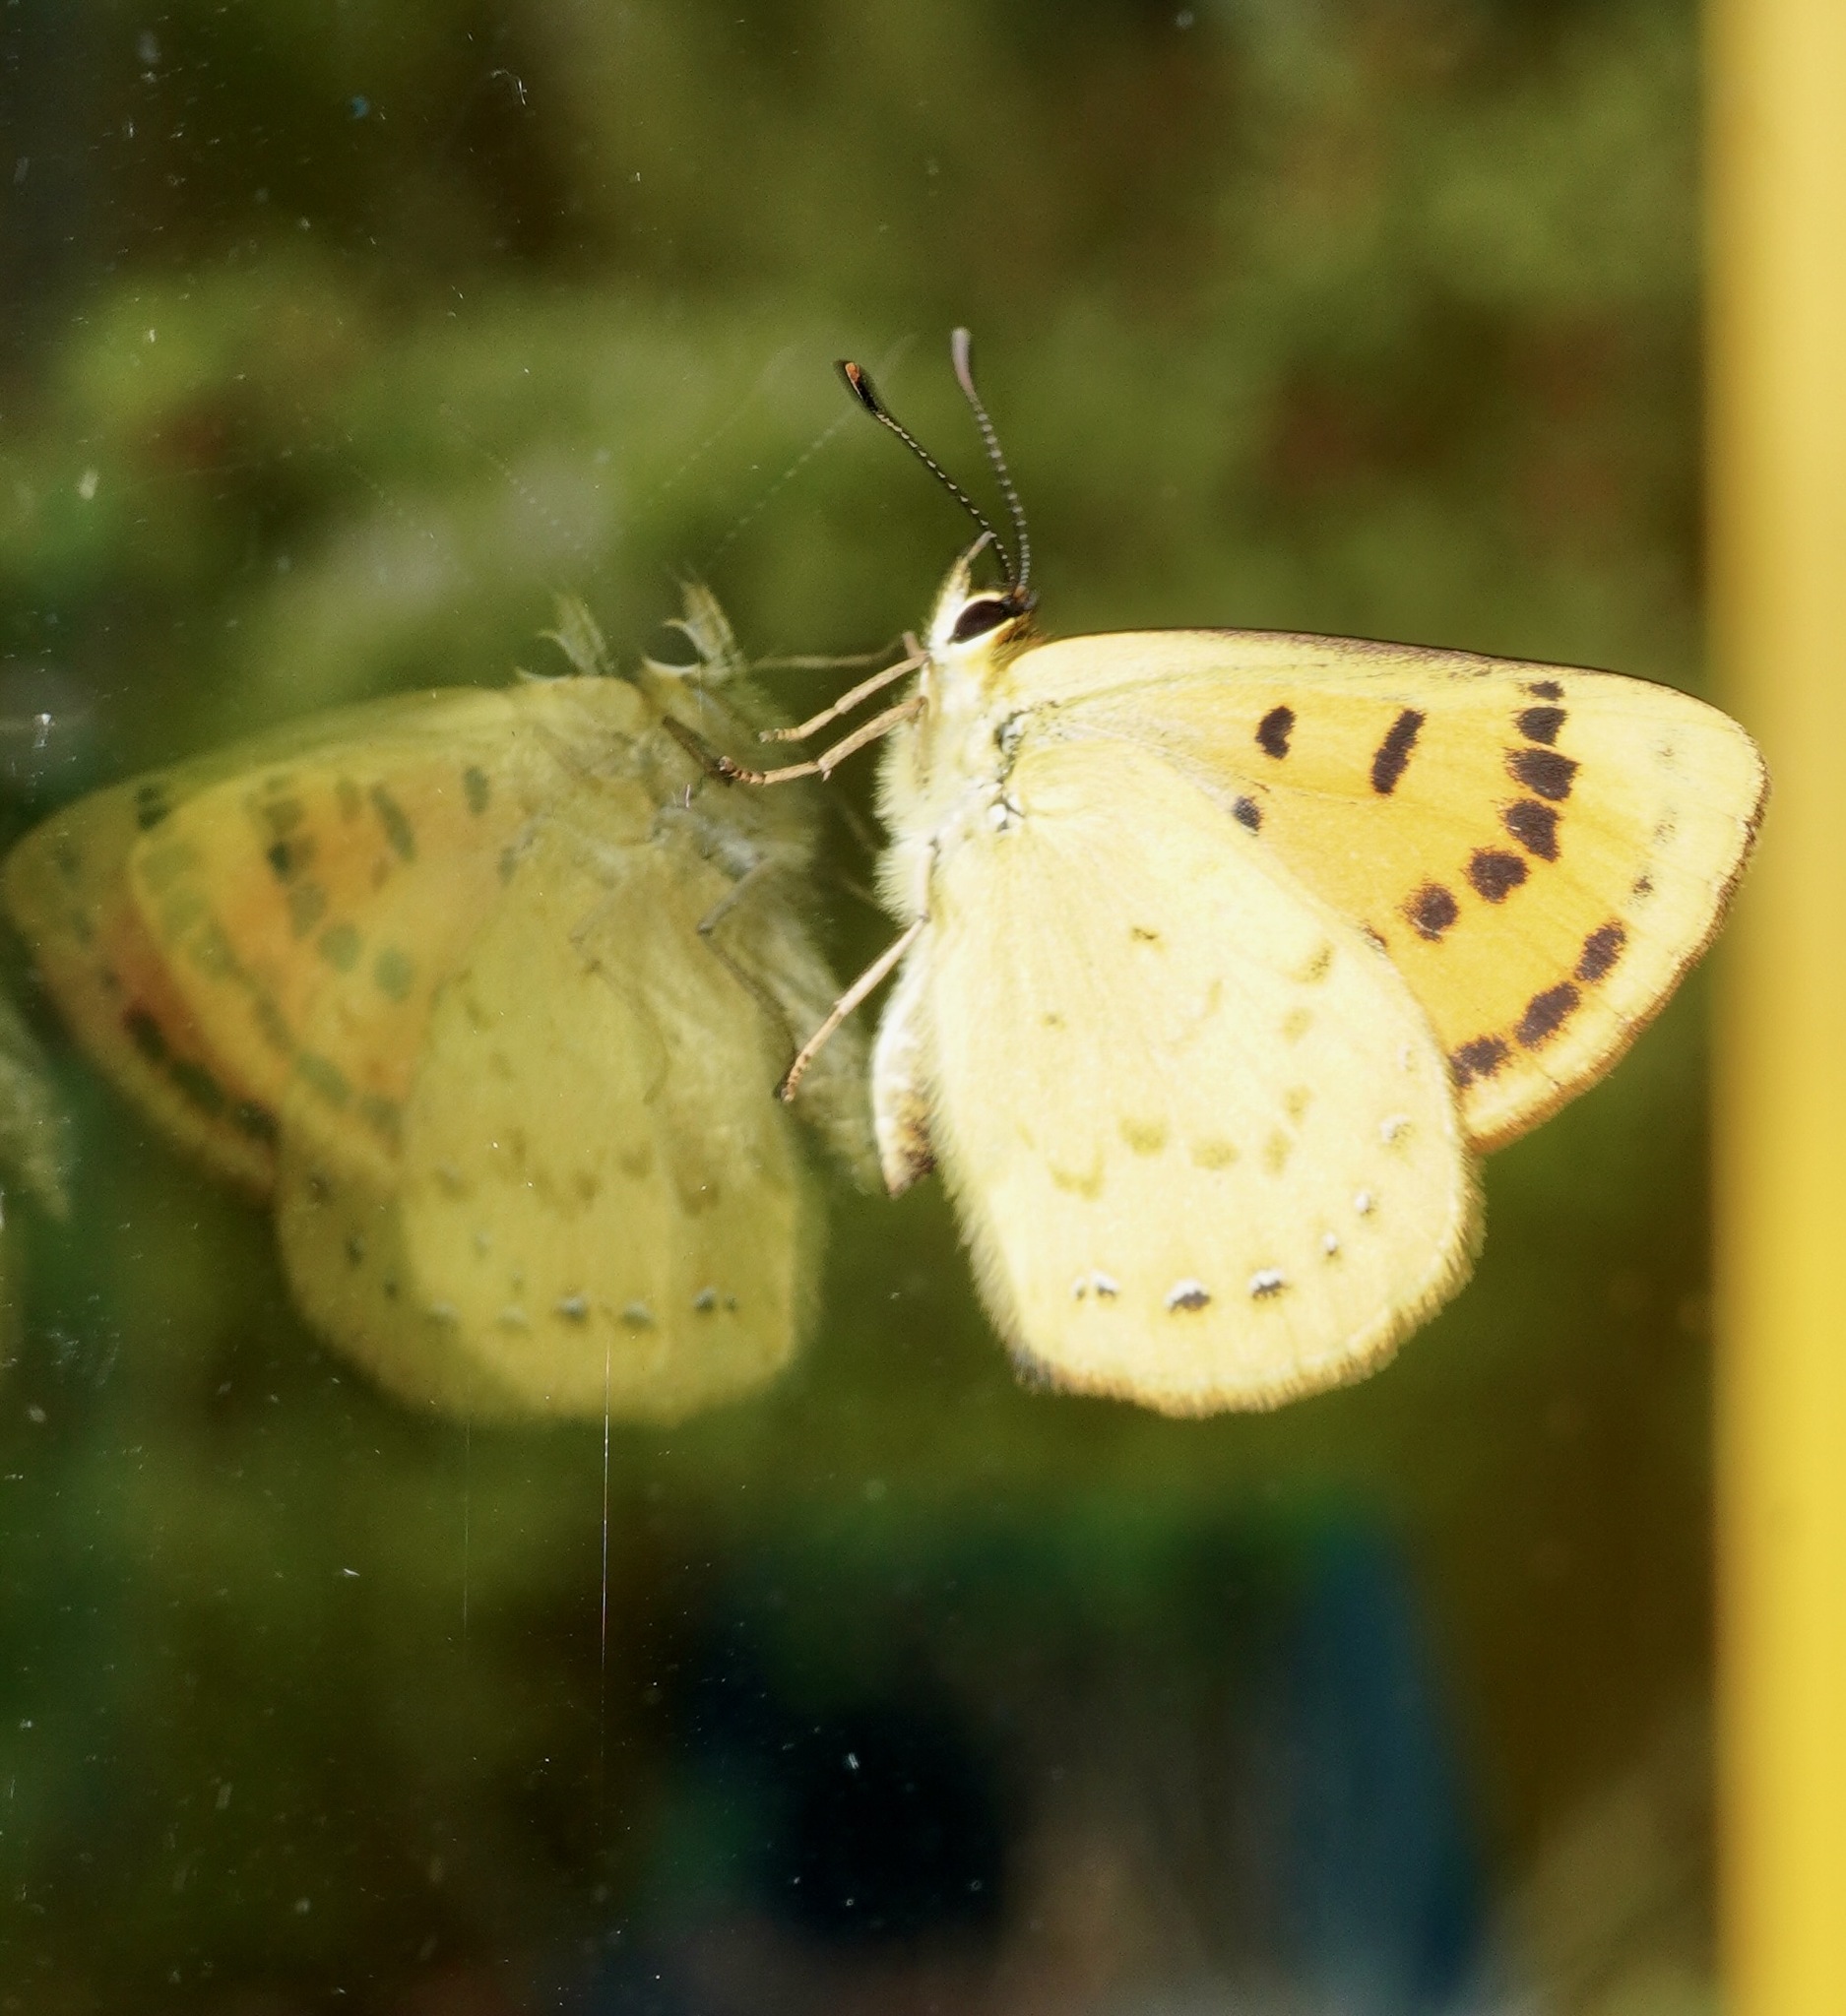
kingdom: Animalia
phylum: Arthropoda
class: Insecta
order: Lepidoptera
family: Lycaenidae
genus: Lycaena
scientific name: Lycaena salustius
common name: North island coastal copper
